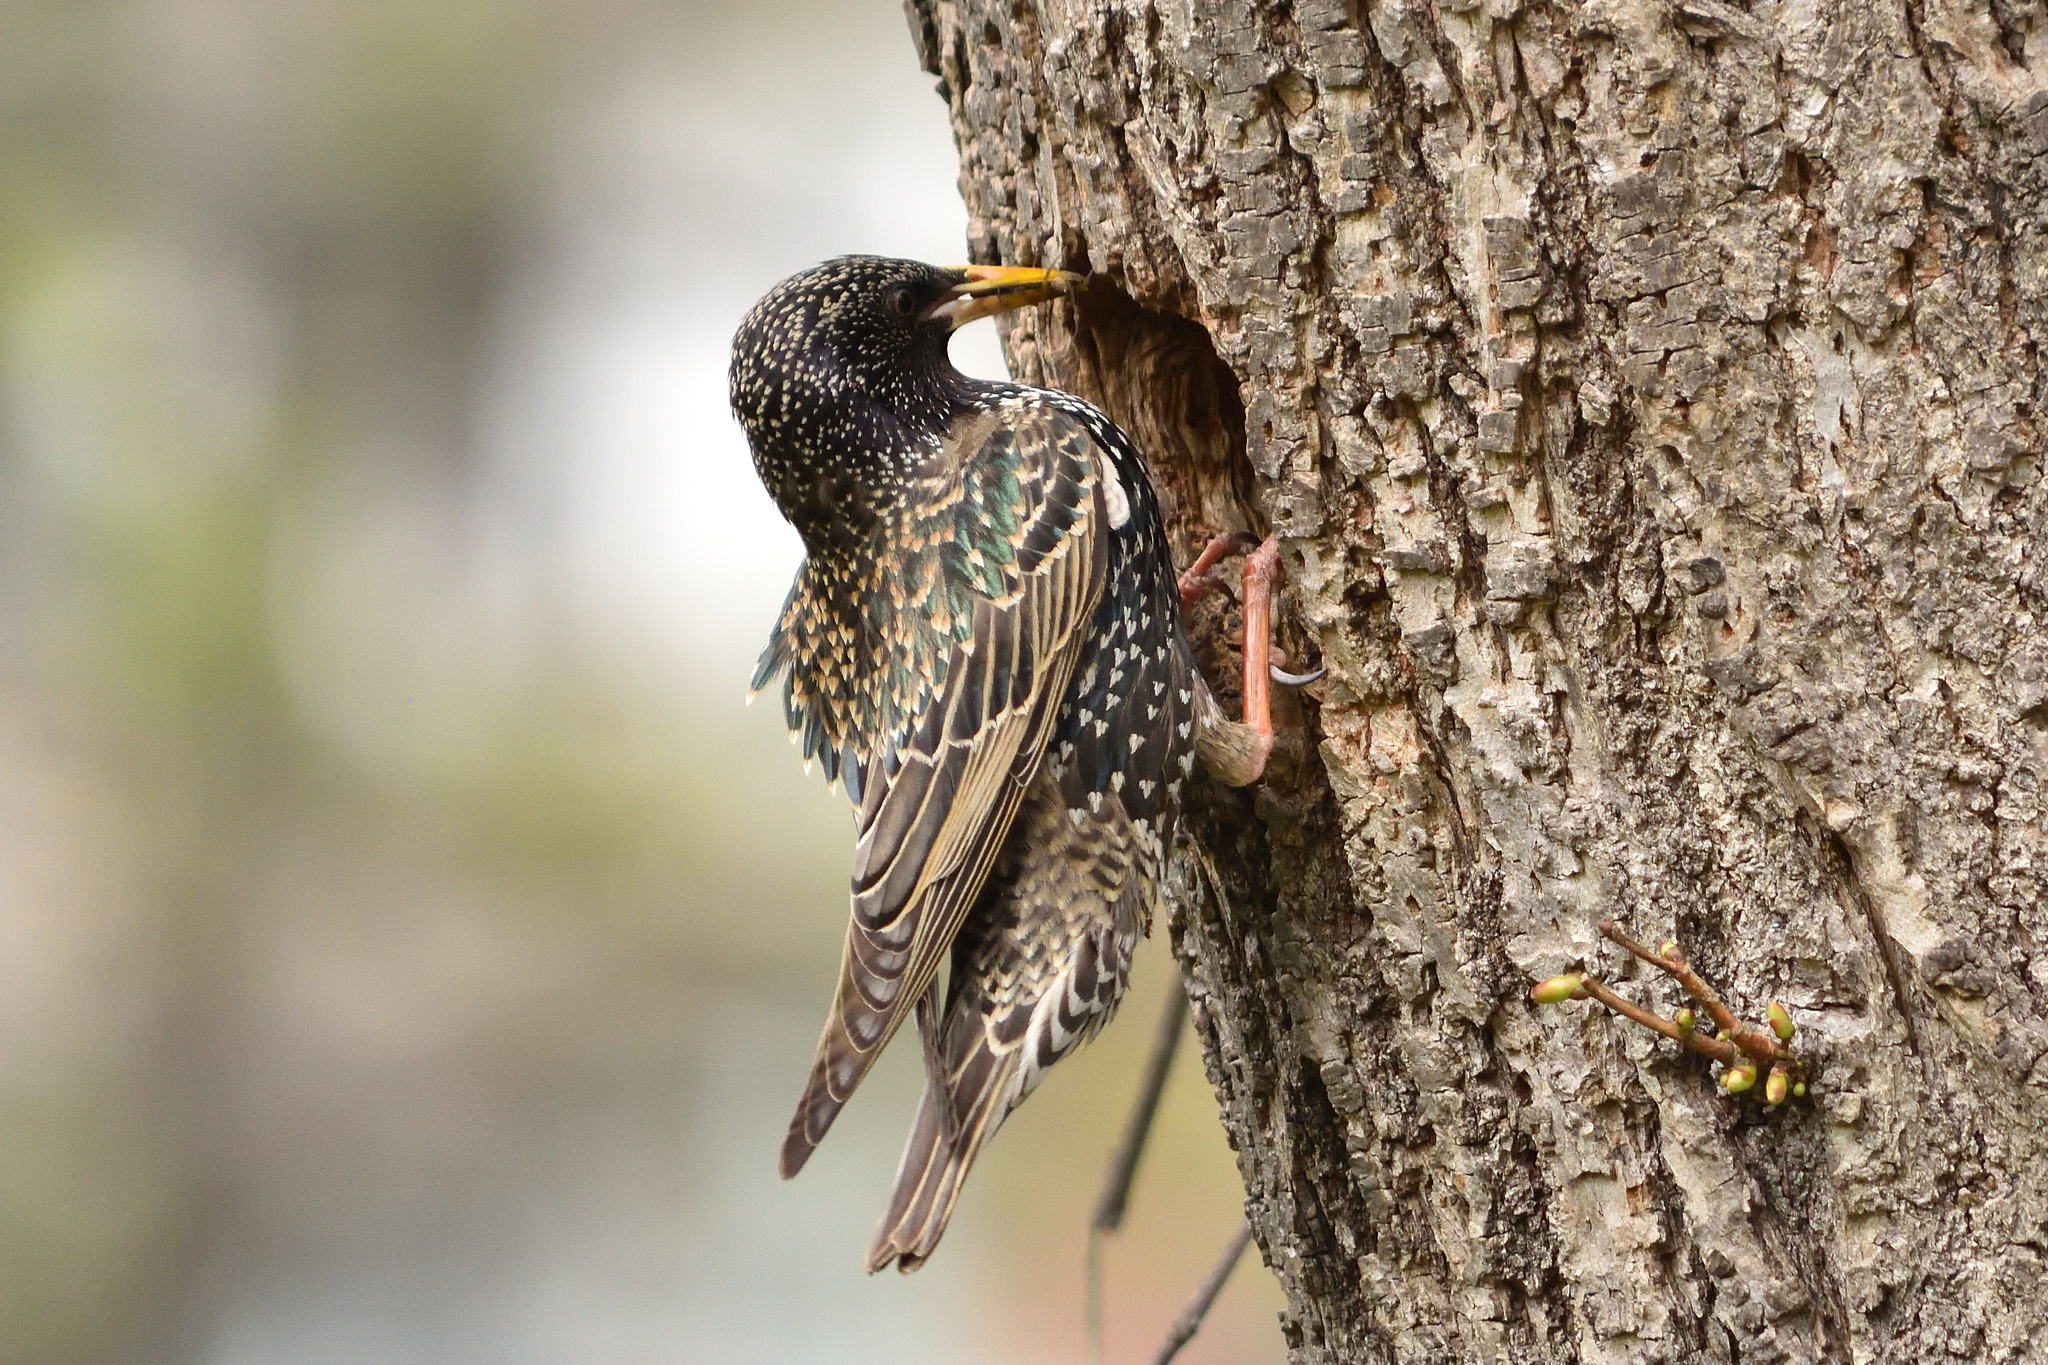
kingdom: Animalia
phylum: Chordata
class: Aves
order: Passeriformes
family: Sturnidae
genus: Sturnus
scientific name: Sturnus vulgaris
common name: Common starling
